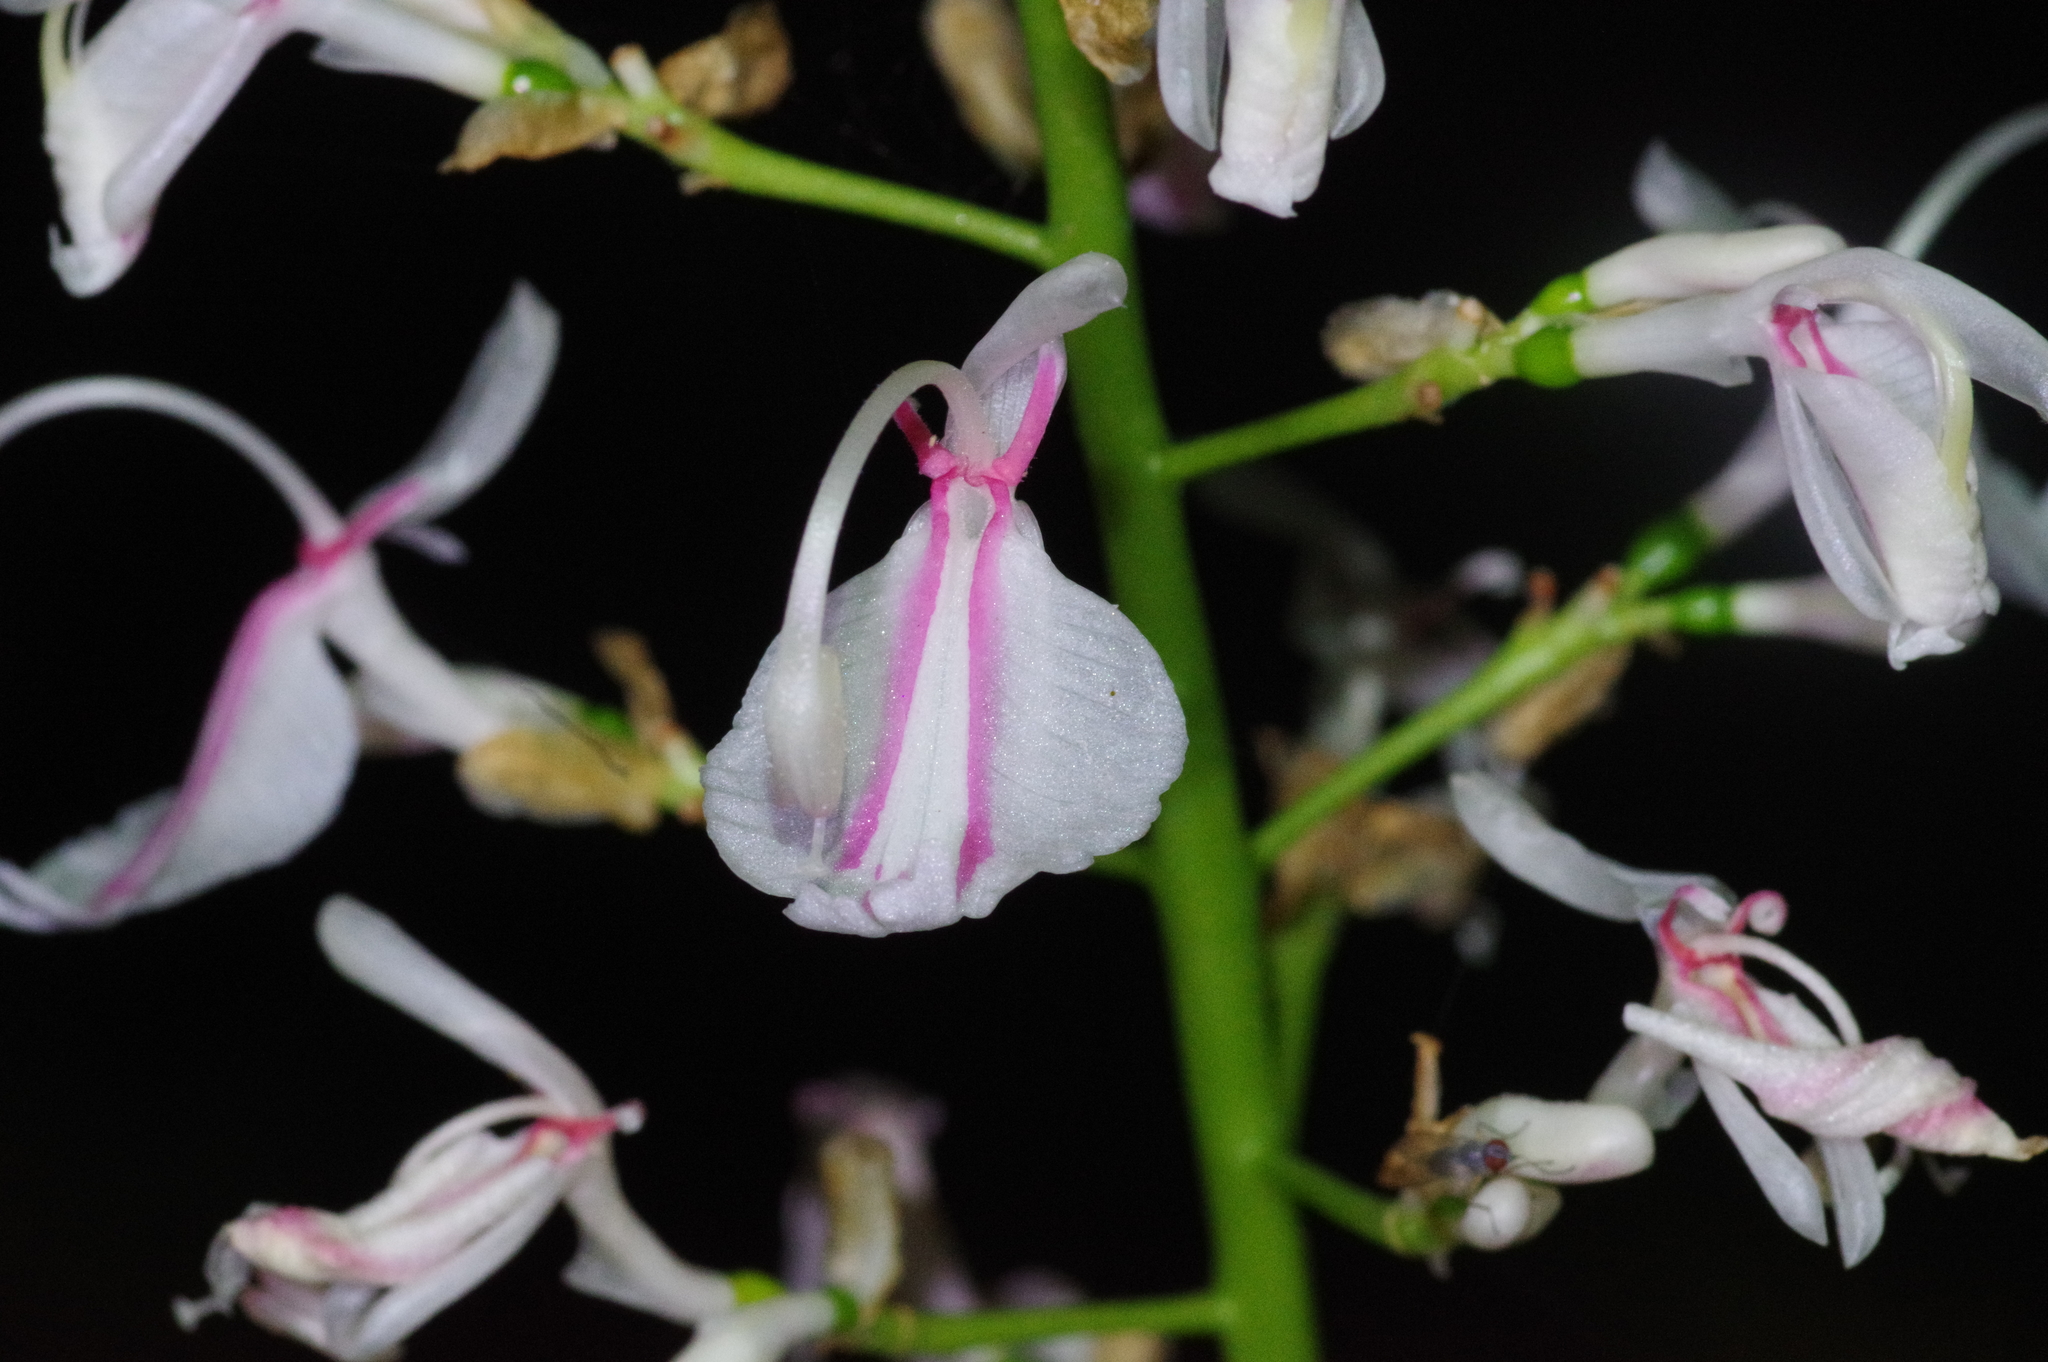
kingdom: Plantae
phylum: Tracheophyta
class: Liliopsida
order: Zingiberales
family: Zingiberaceae
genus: Alpinia
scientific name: Alpinia intermedia
